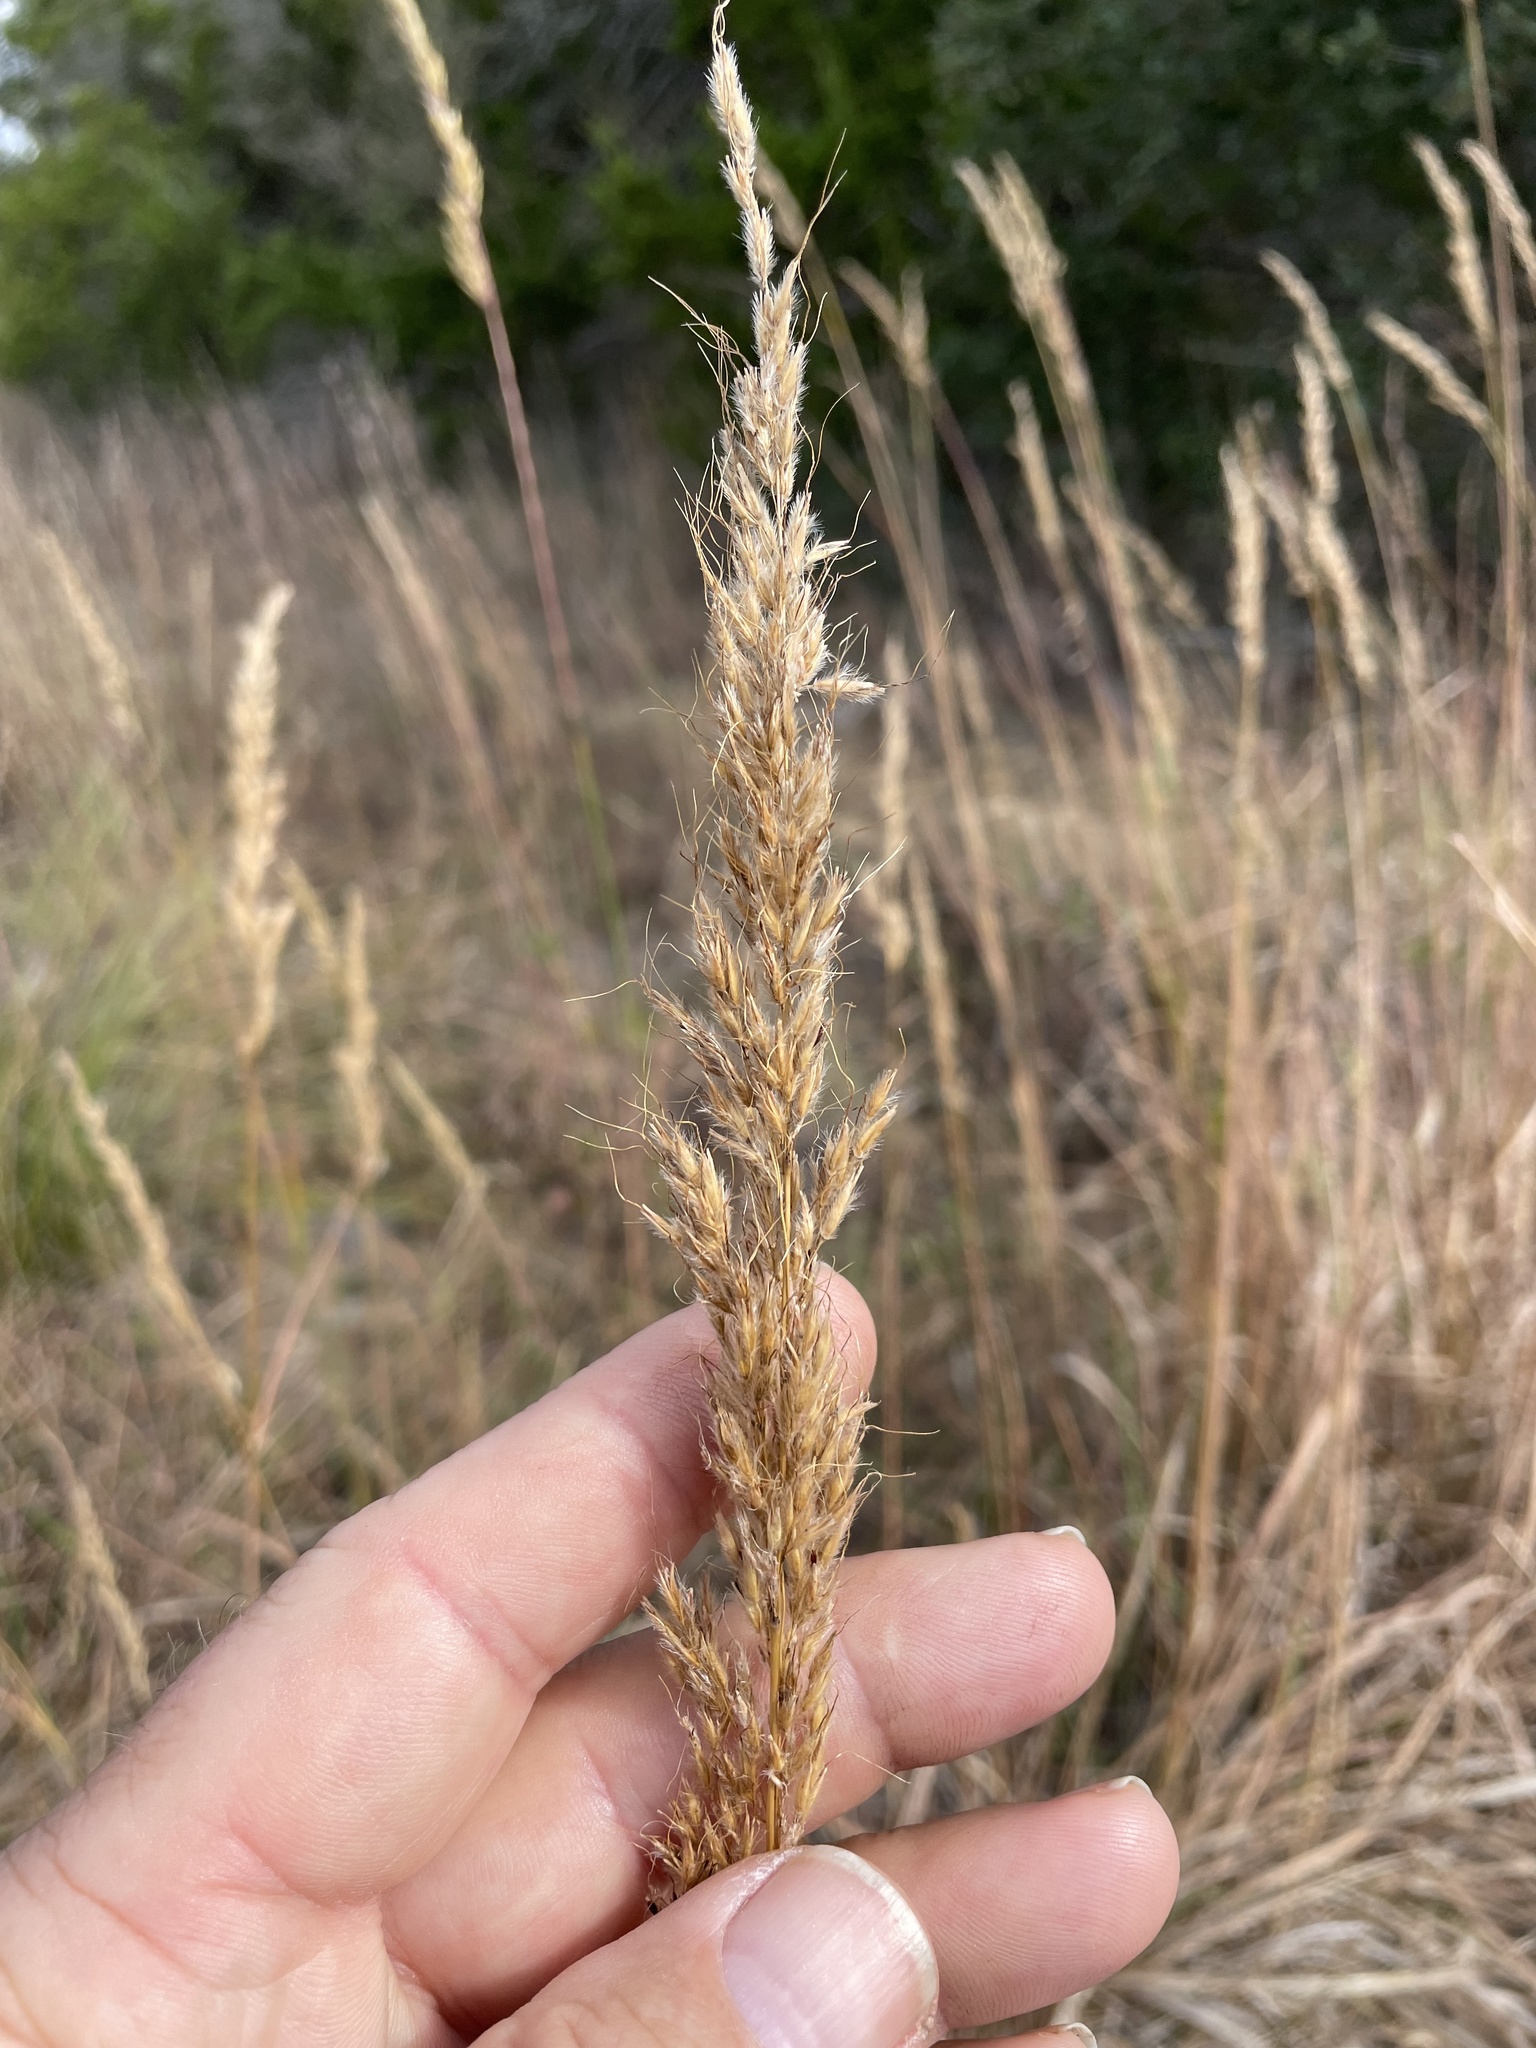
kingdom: Plantae
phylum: Tracheophyta
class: Liliopsida
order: Poales
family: Poaceae
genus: Sorghastrum
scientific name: Sorghastrum nutans
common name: Indian grass
